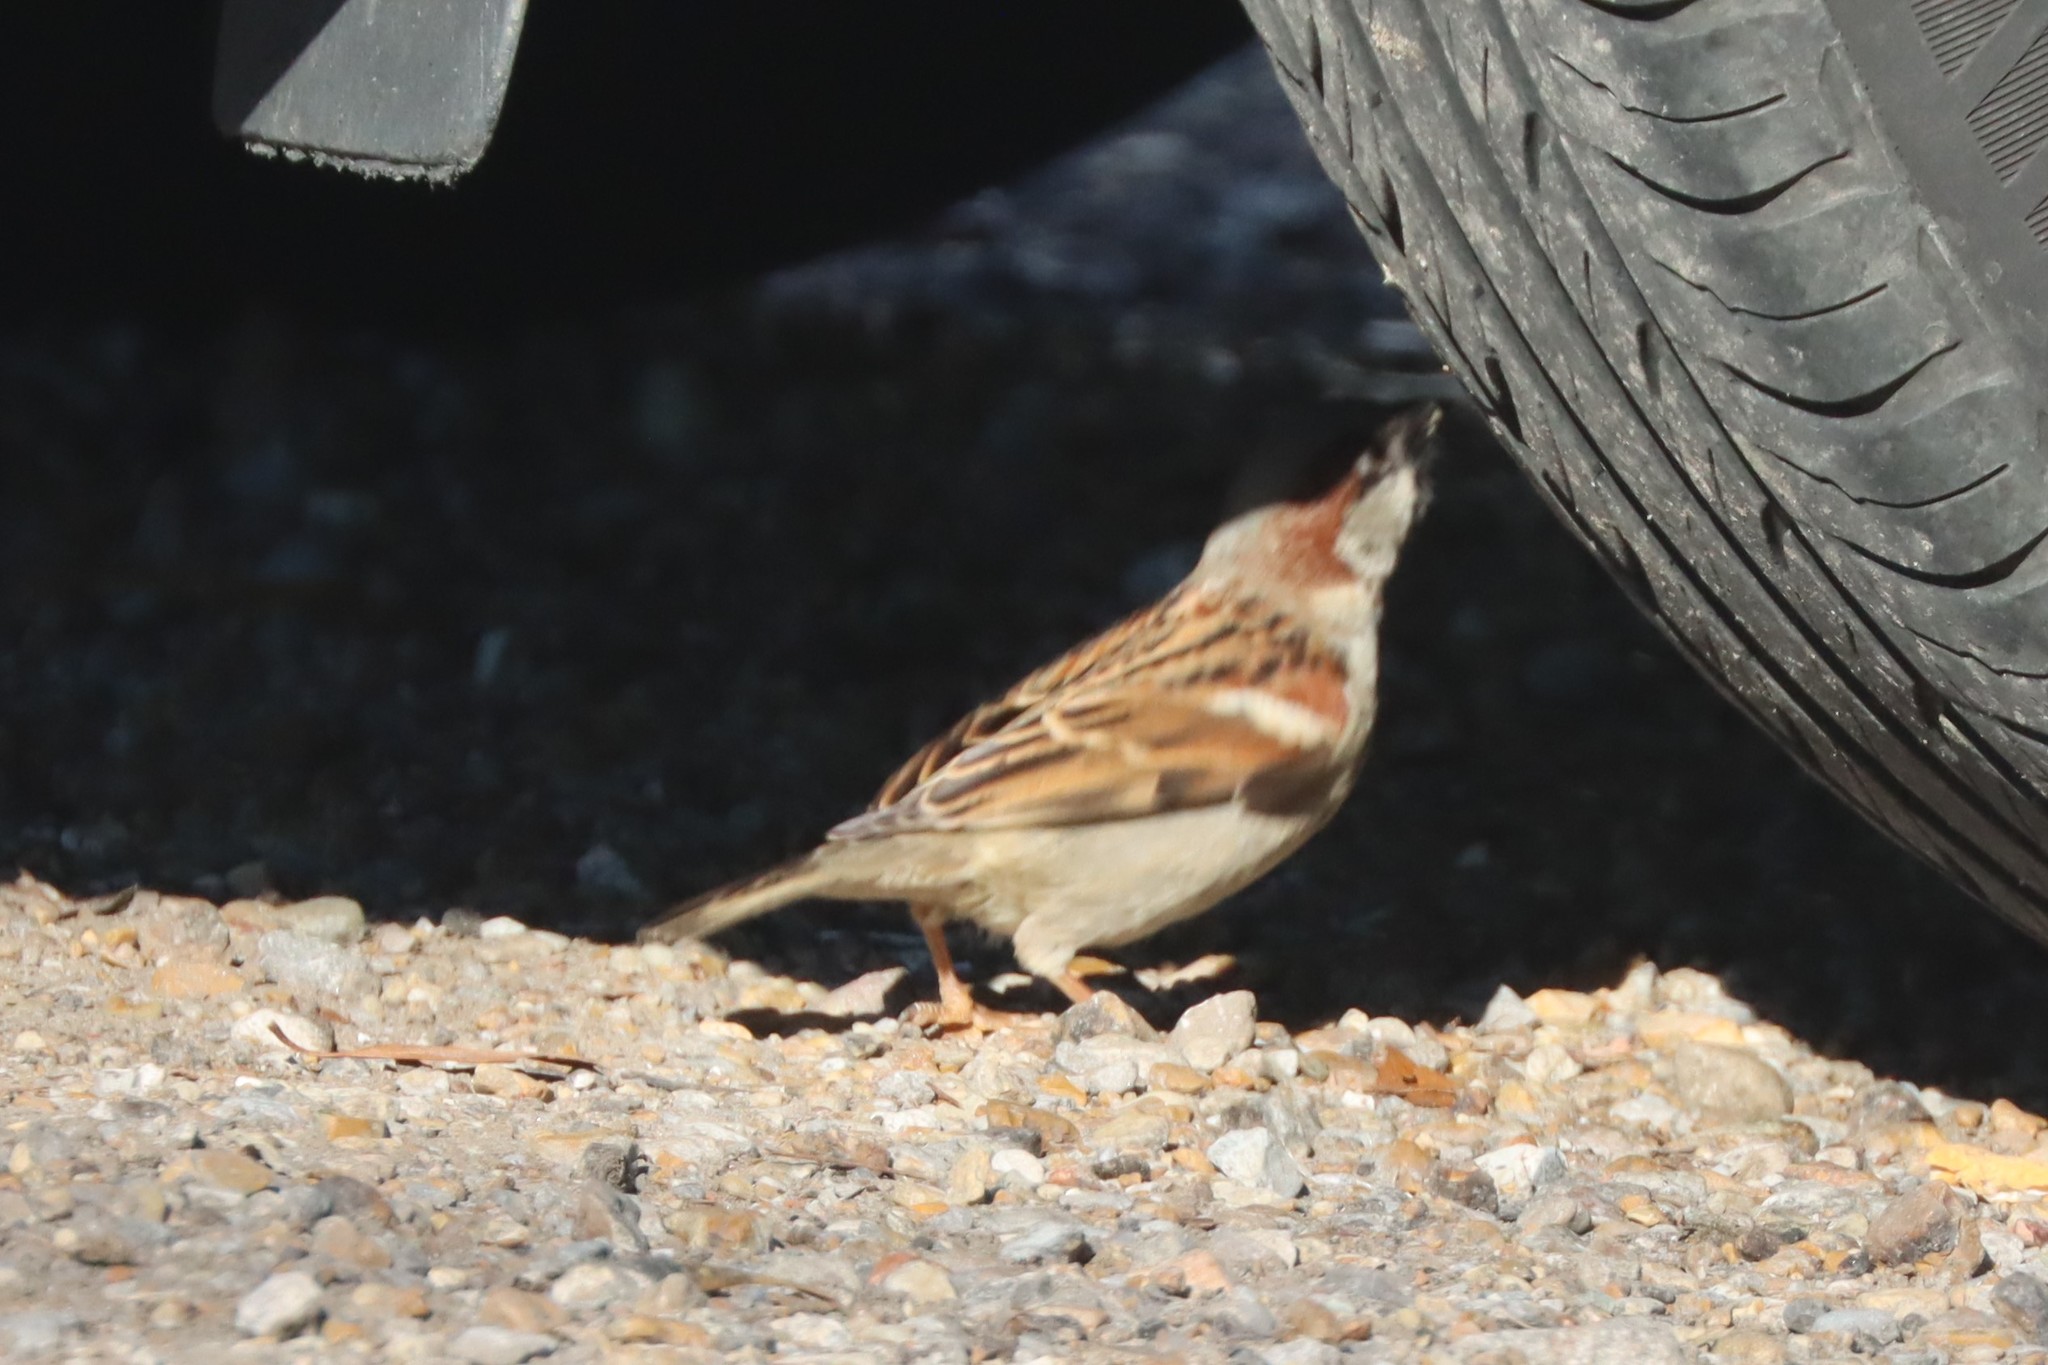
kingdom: Animalia
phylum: Chordata
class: Aves
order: Passeriformes
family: Passeridae
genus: Passer
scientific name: Passer domesticus
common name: House sparrow
